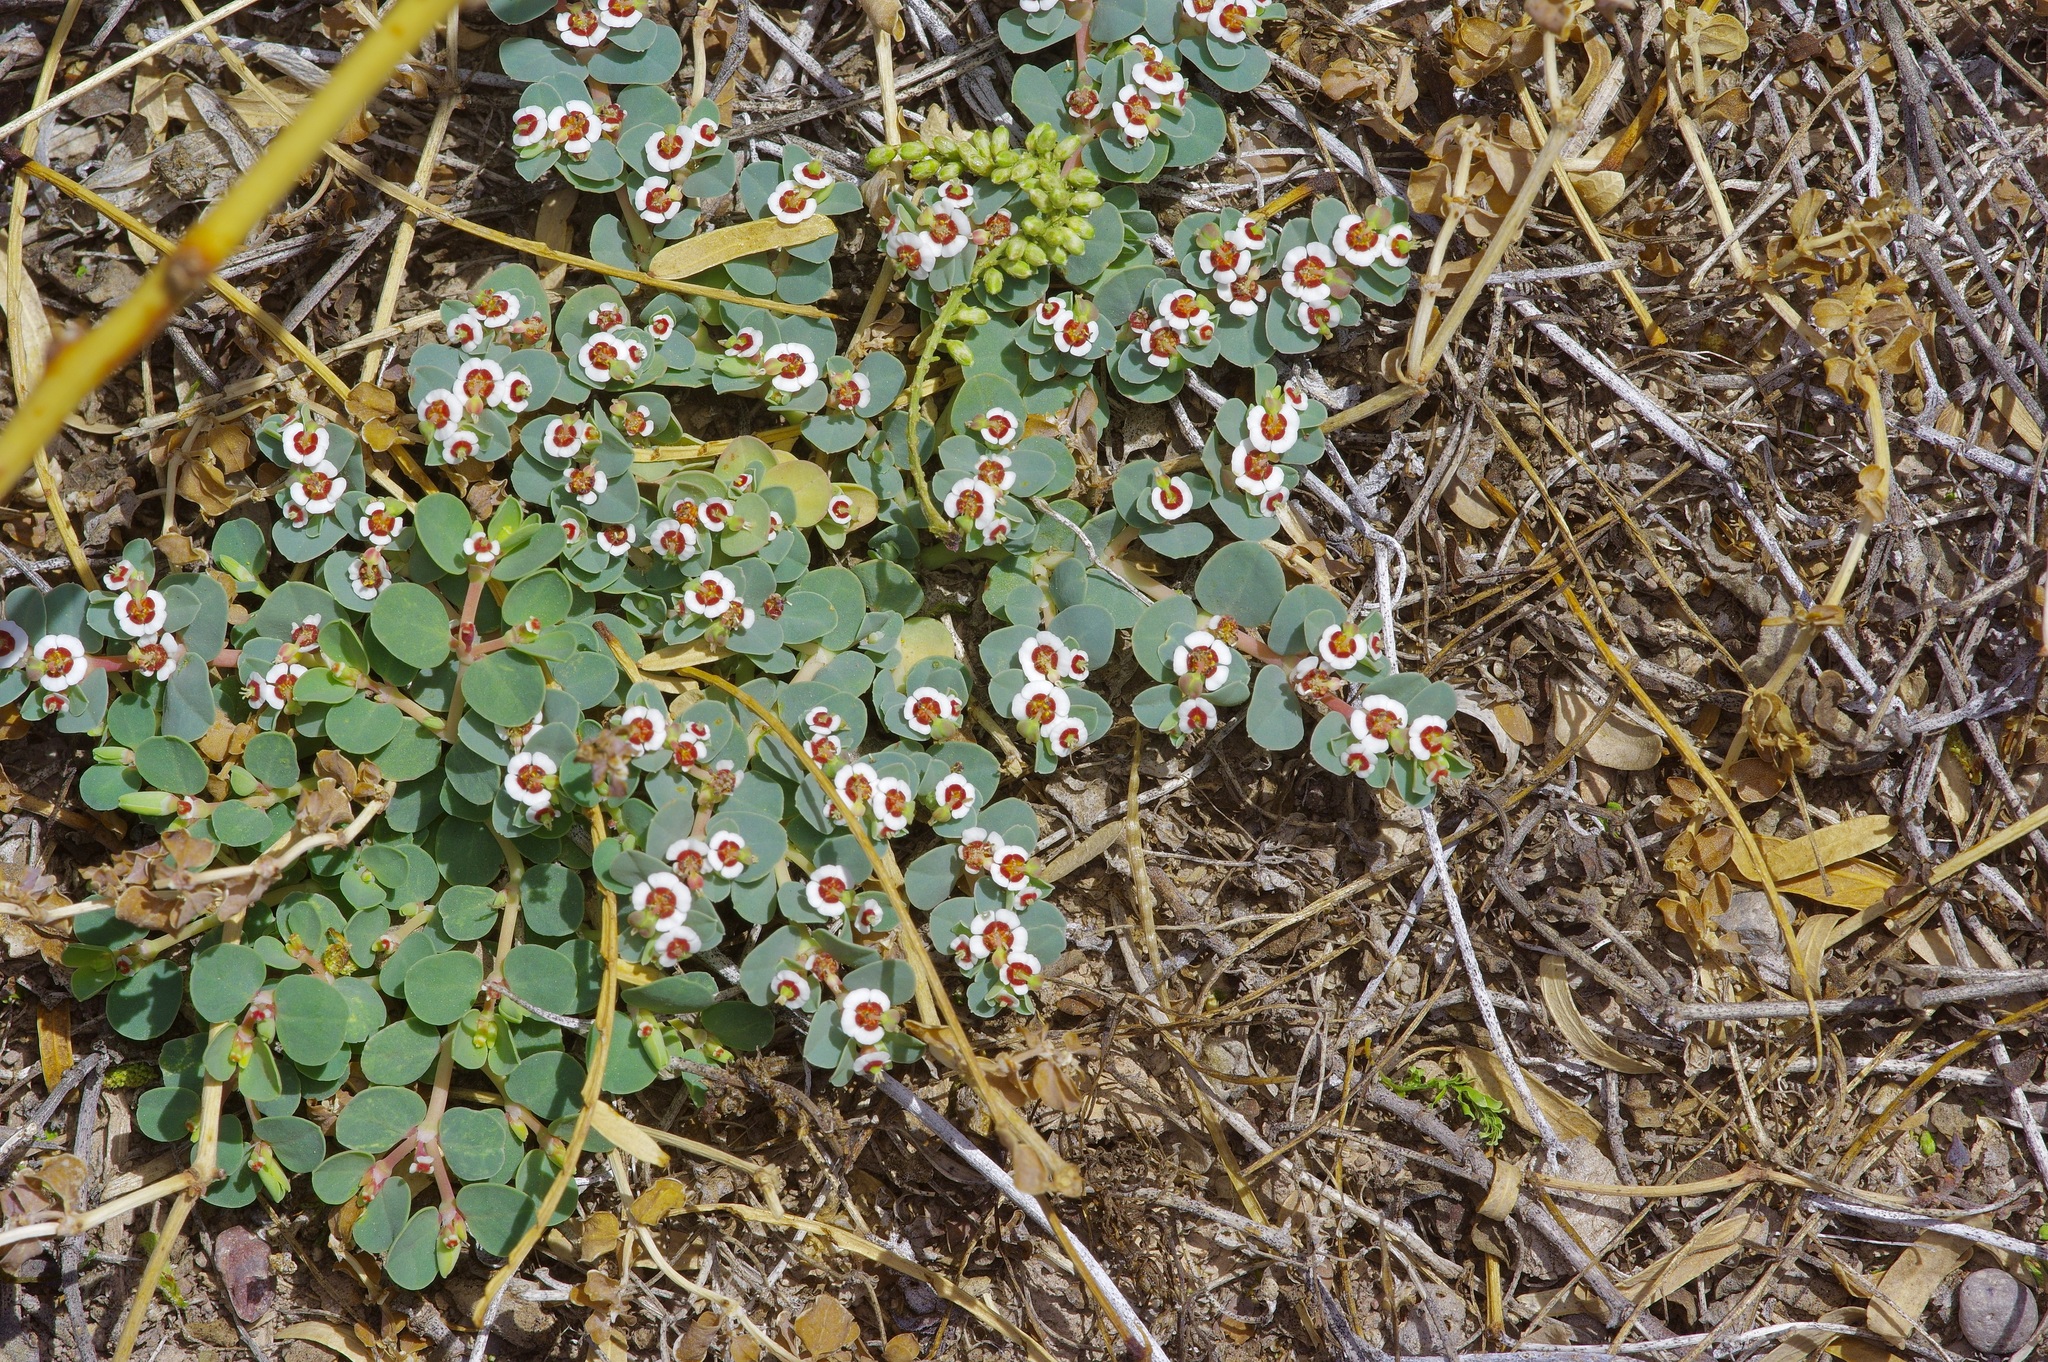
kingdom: Plantae
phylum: Tracheophyta
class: Magnoliopsida
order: Malpighiales
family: Euphorbiaceae
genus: Euphorbia
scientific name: Euphorbia albomarginata
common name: Whitemargin sandmat
